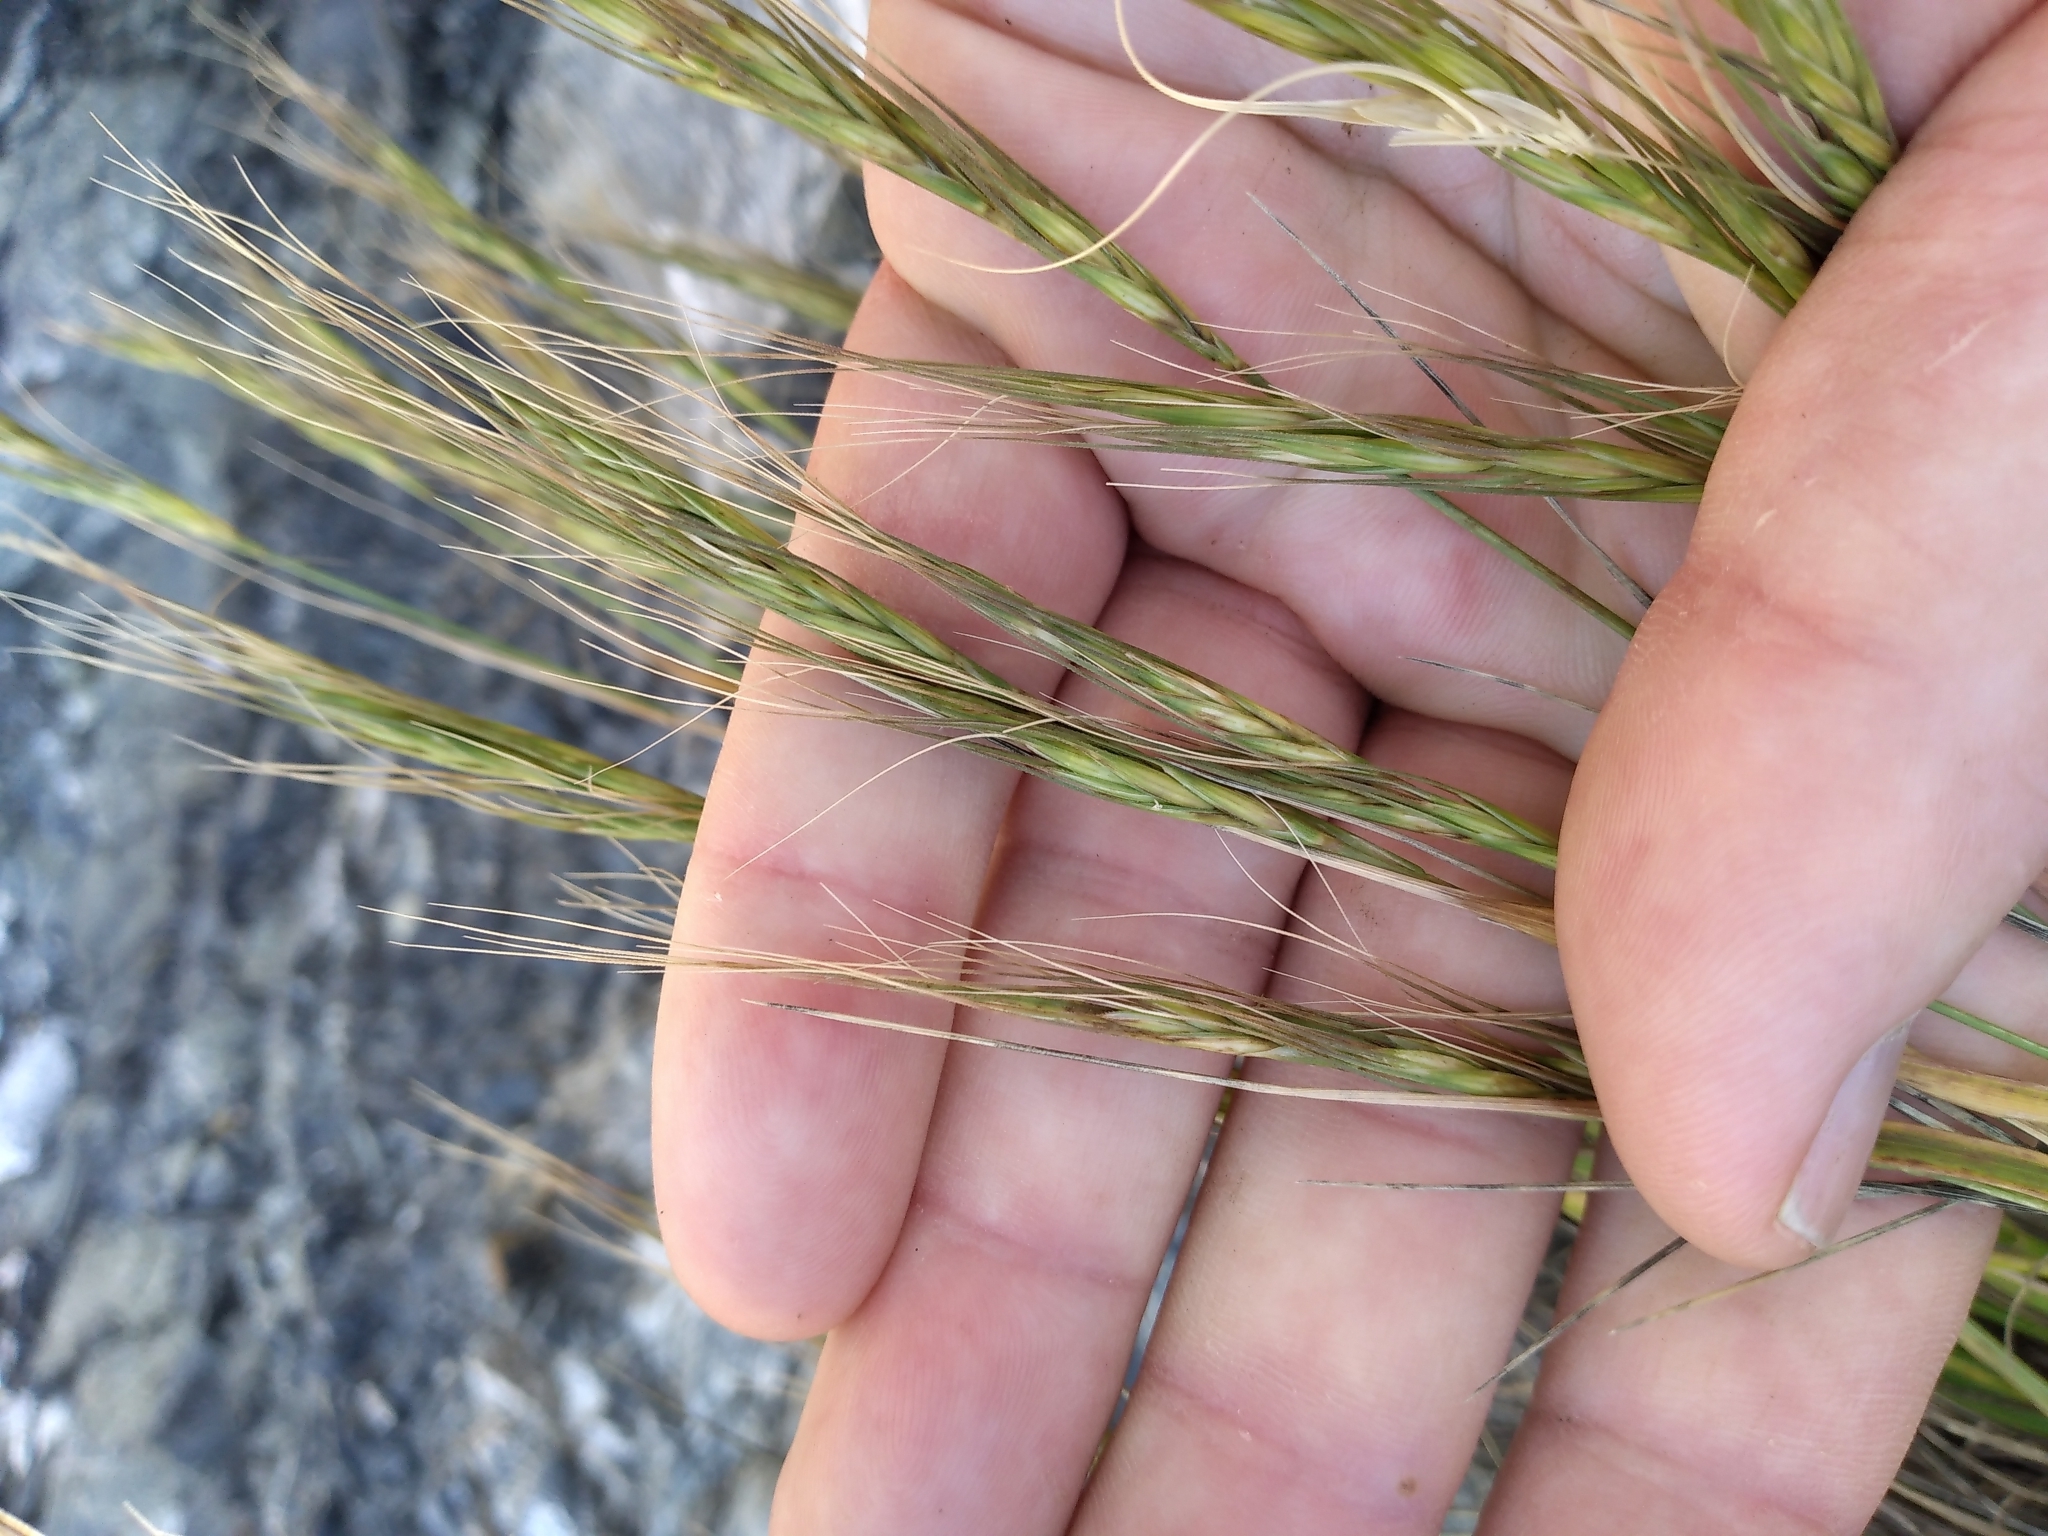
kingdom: Plantae
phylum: Tracheophyta
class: Liliopsida
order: Poales
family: Poaceae
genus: Anthosachne
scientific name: Anthosachne solandri
